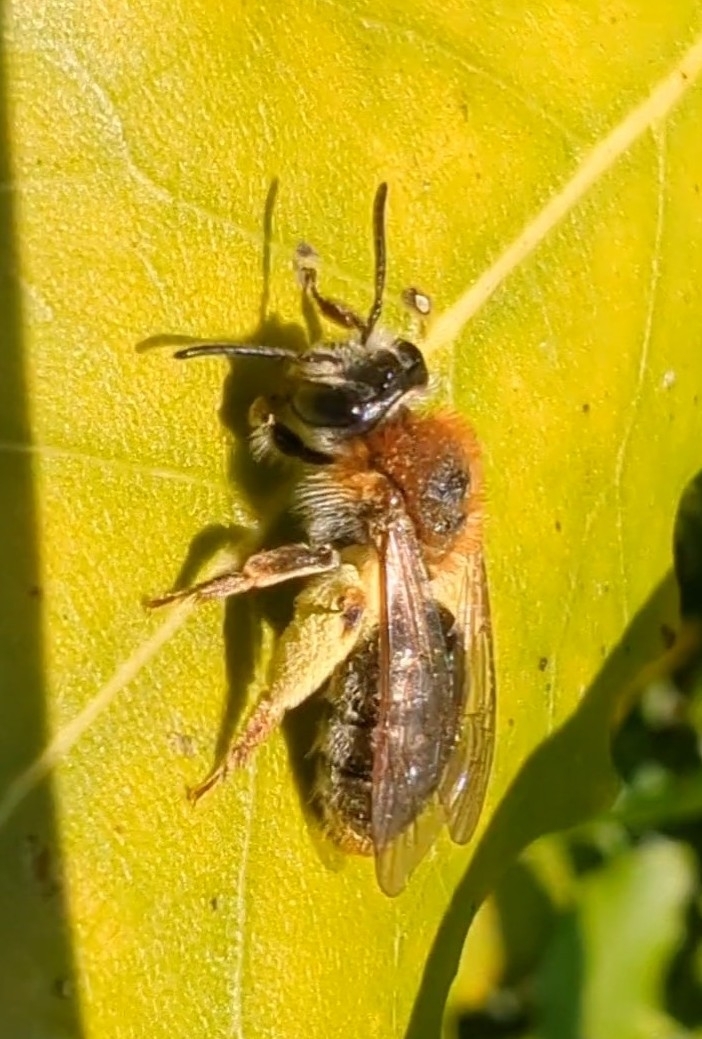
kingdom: Animalia
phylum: Arthropoda
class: Insecta
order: Hymenoptera
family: Andrenidae
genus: Andrena
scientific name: Andrena haemorrhoa
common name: Early mining bee
